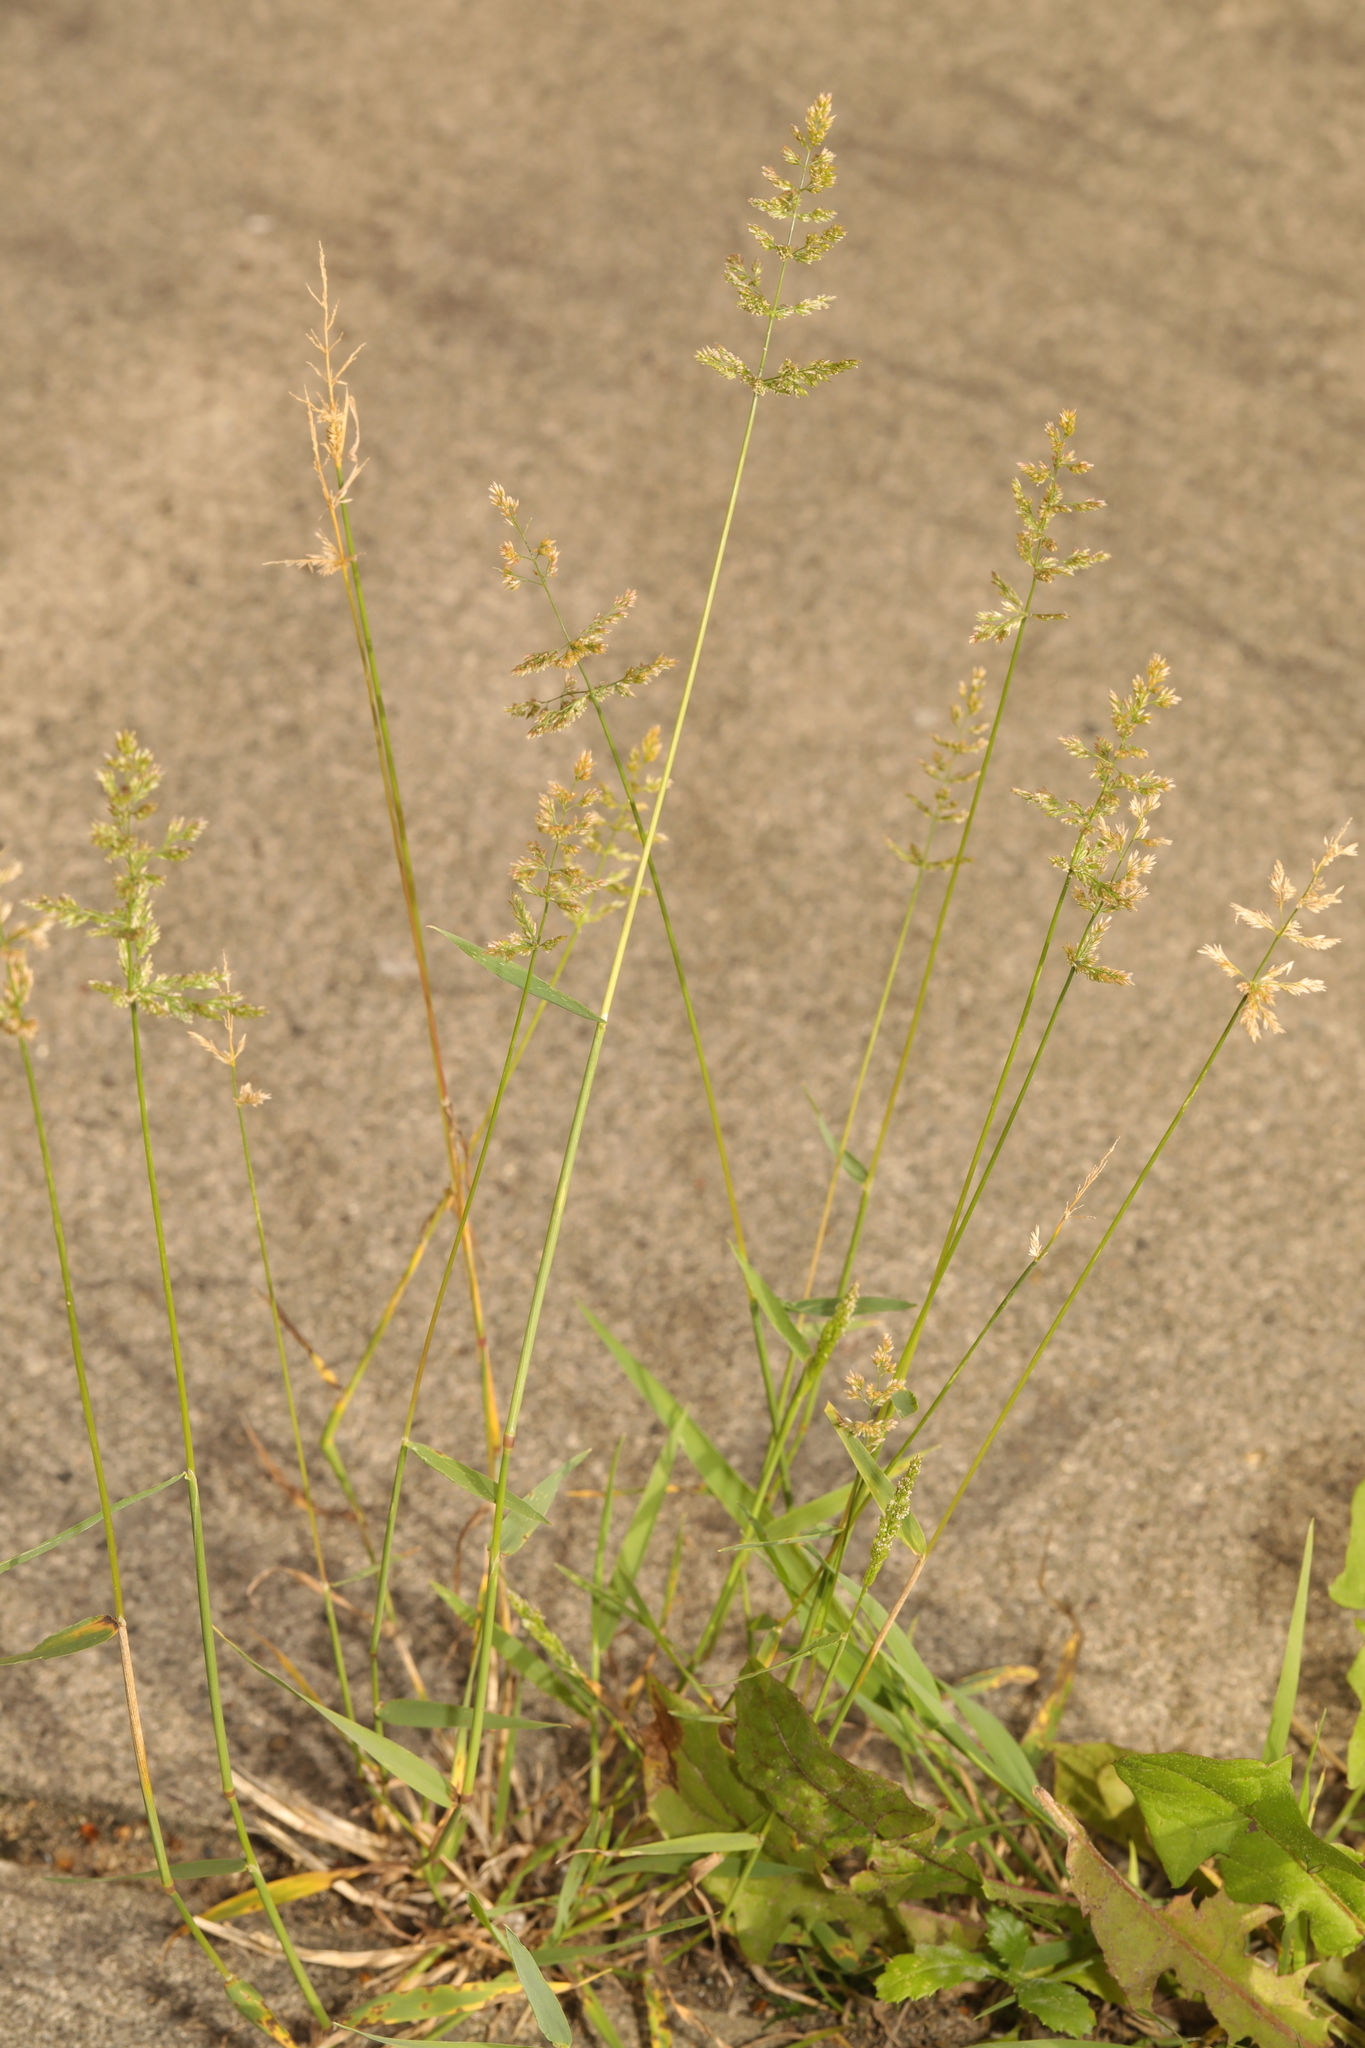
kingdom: Plantae
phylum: Tracheophyta
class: Liliopsida
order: Poales
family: Poaceae
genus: Polypogon
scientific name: Polypogon viridis
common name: Water bent
